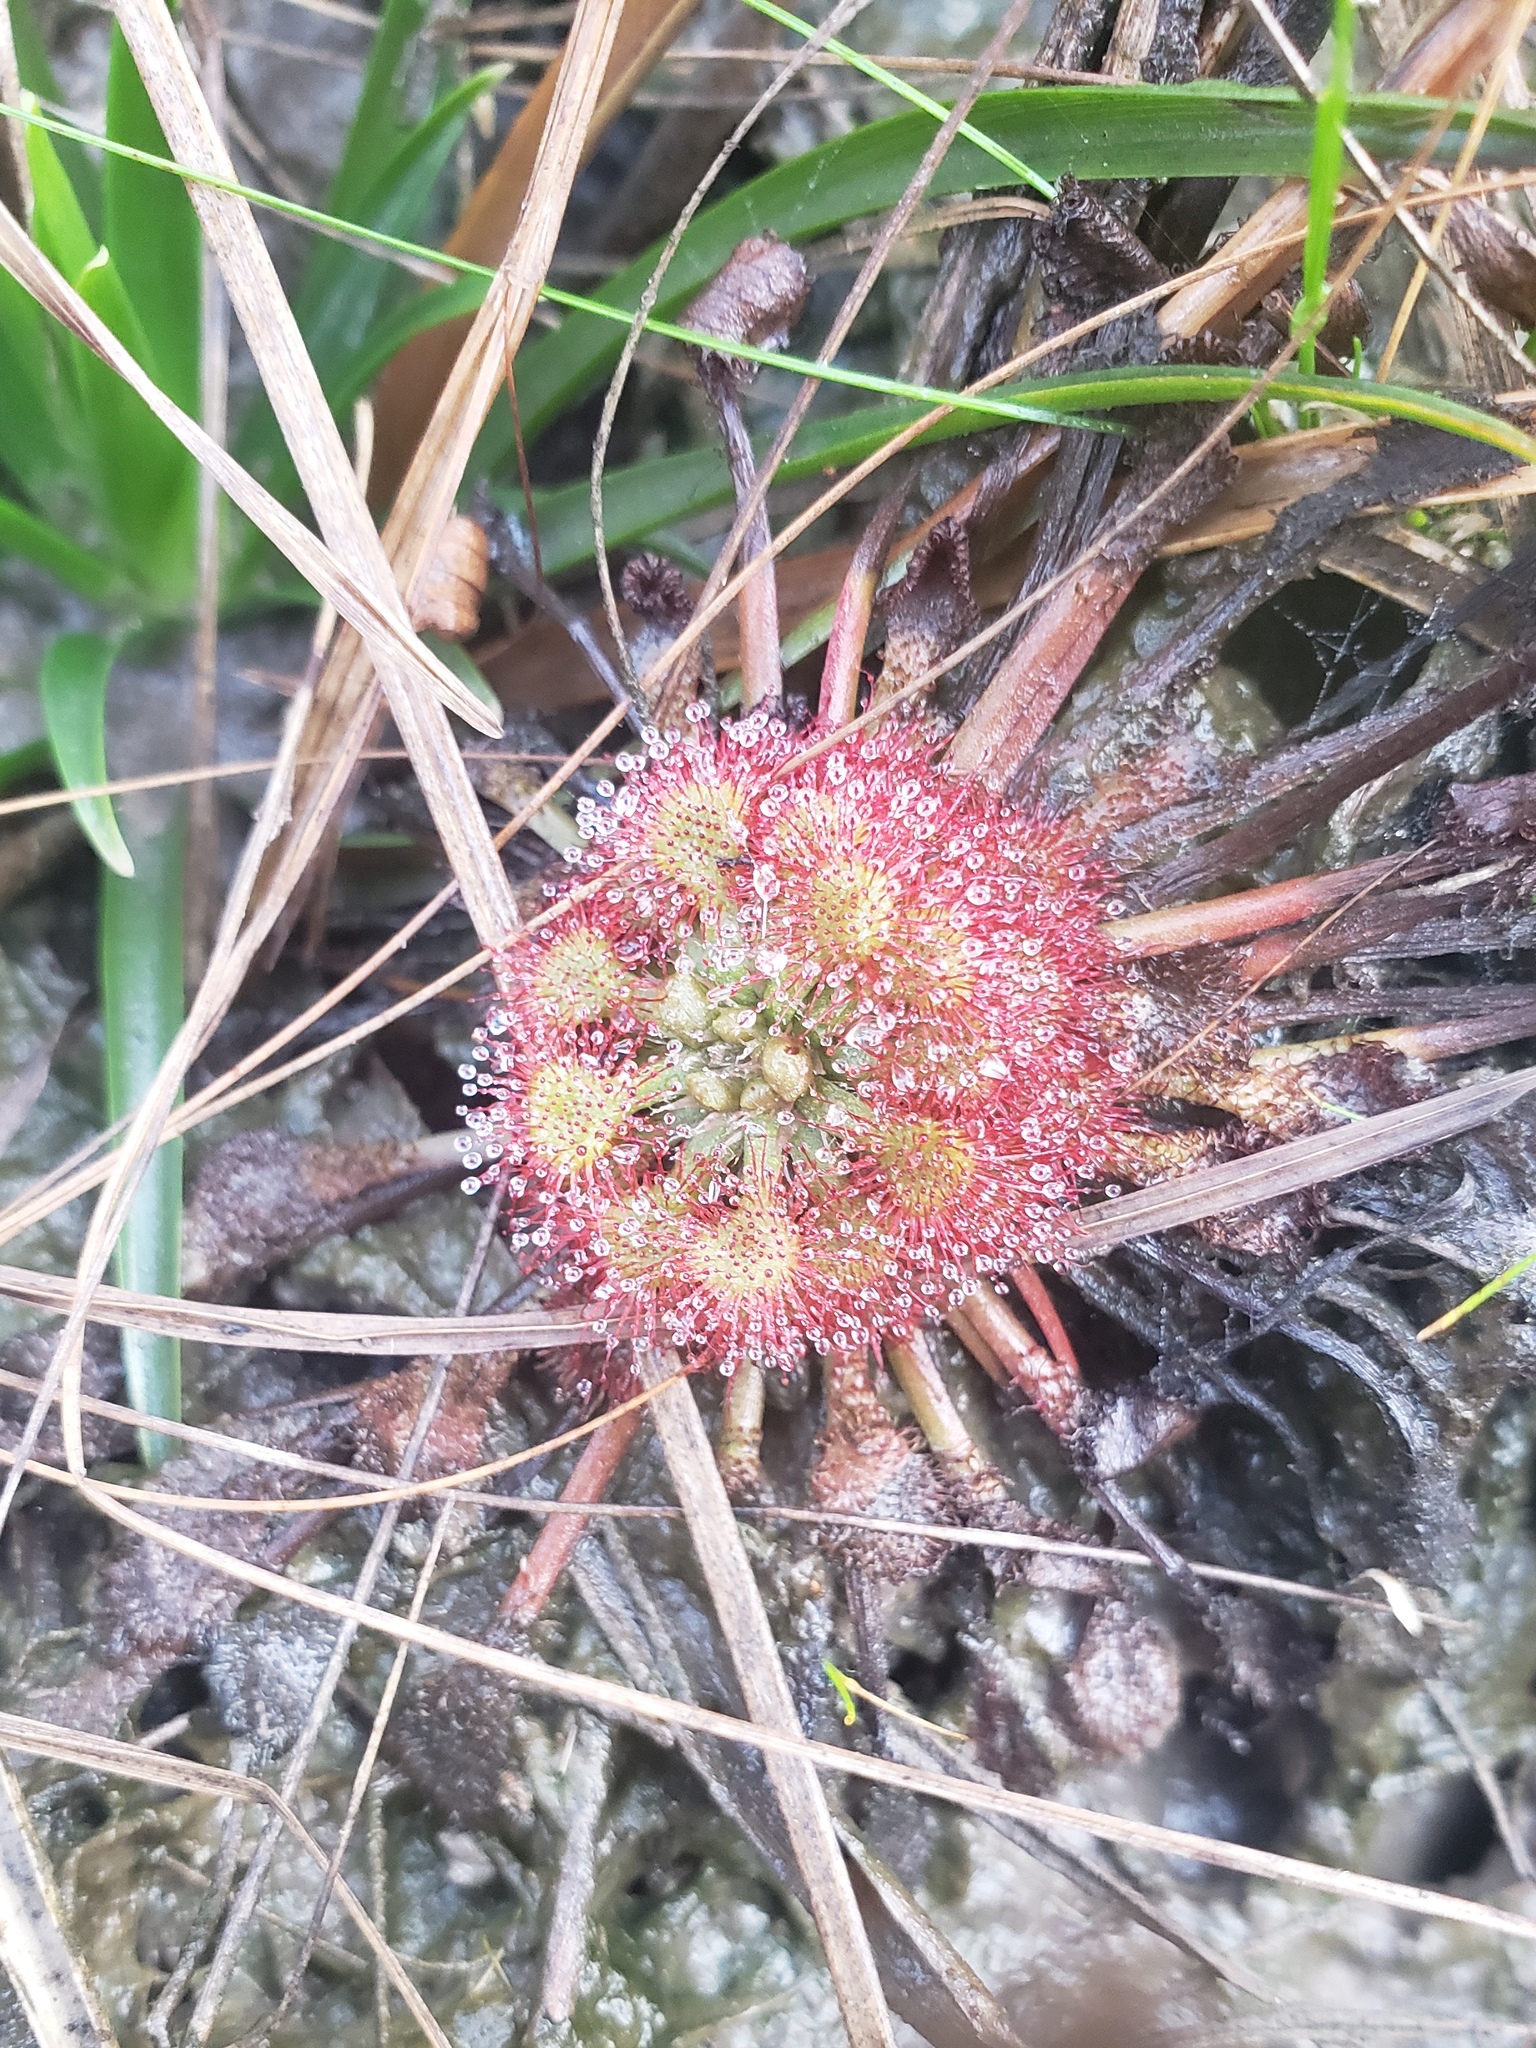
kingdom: Plantae
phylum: Tracheophyta
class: Magnoliopsida
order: Caryophyllales
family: Droseraceae
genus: Drosera
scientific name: Drosera capillaris
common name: Pink sundew
